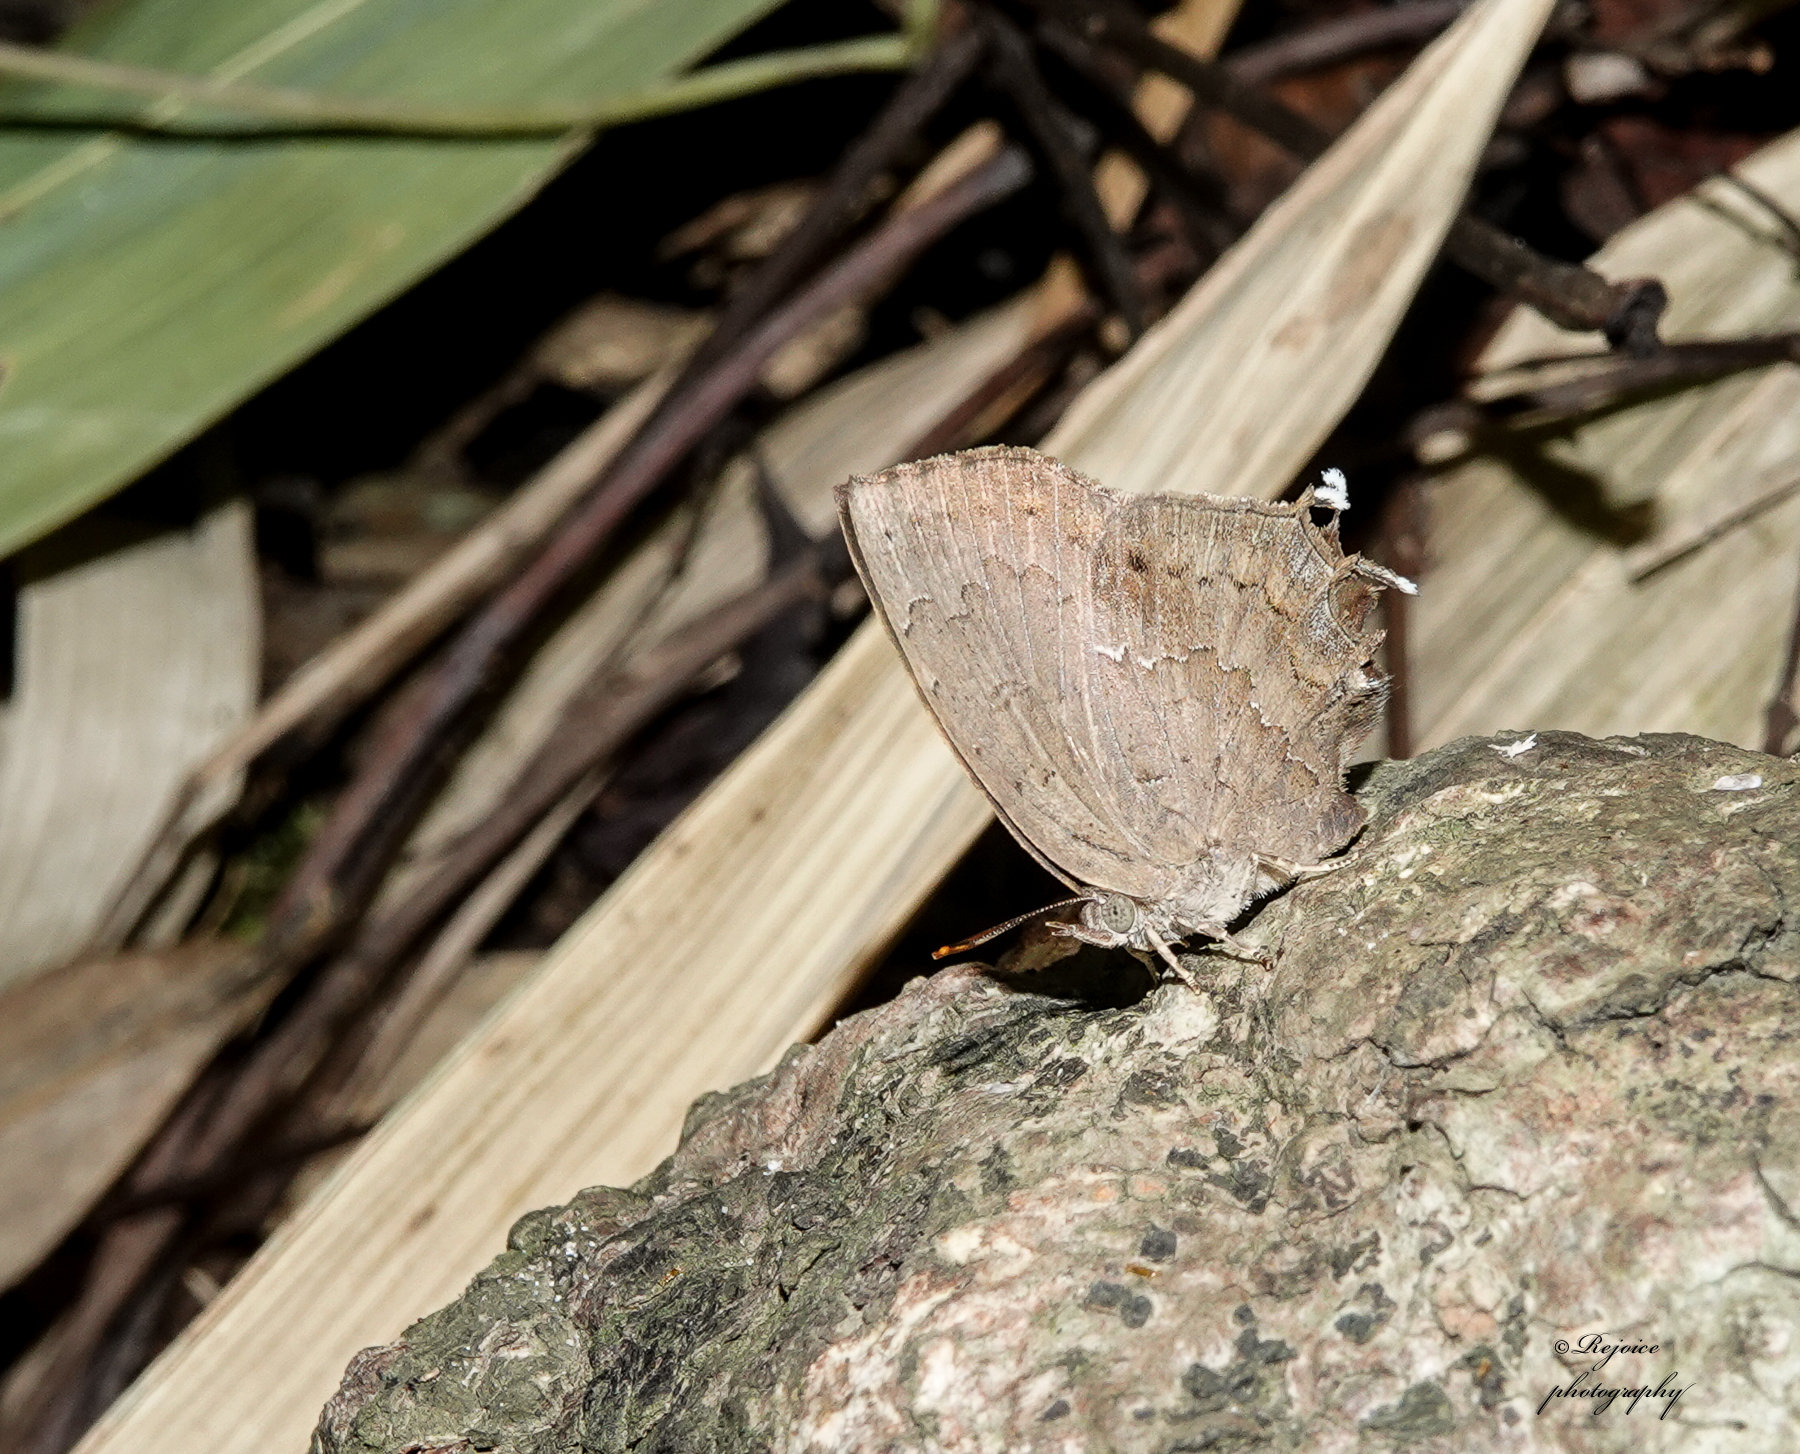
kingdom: Animalia
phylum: Arthropoda
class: Insecta
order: Lepidoptera
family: Lycaenidae
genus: Surendra
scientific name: Surendra quercetorum
